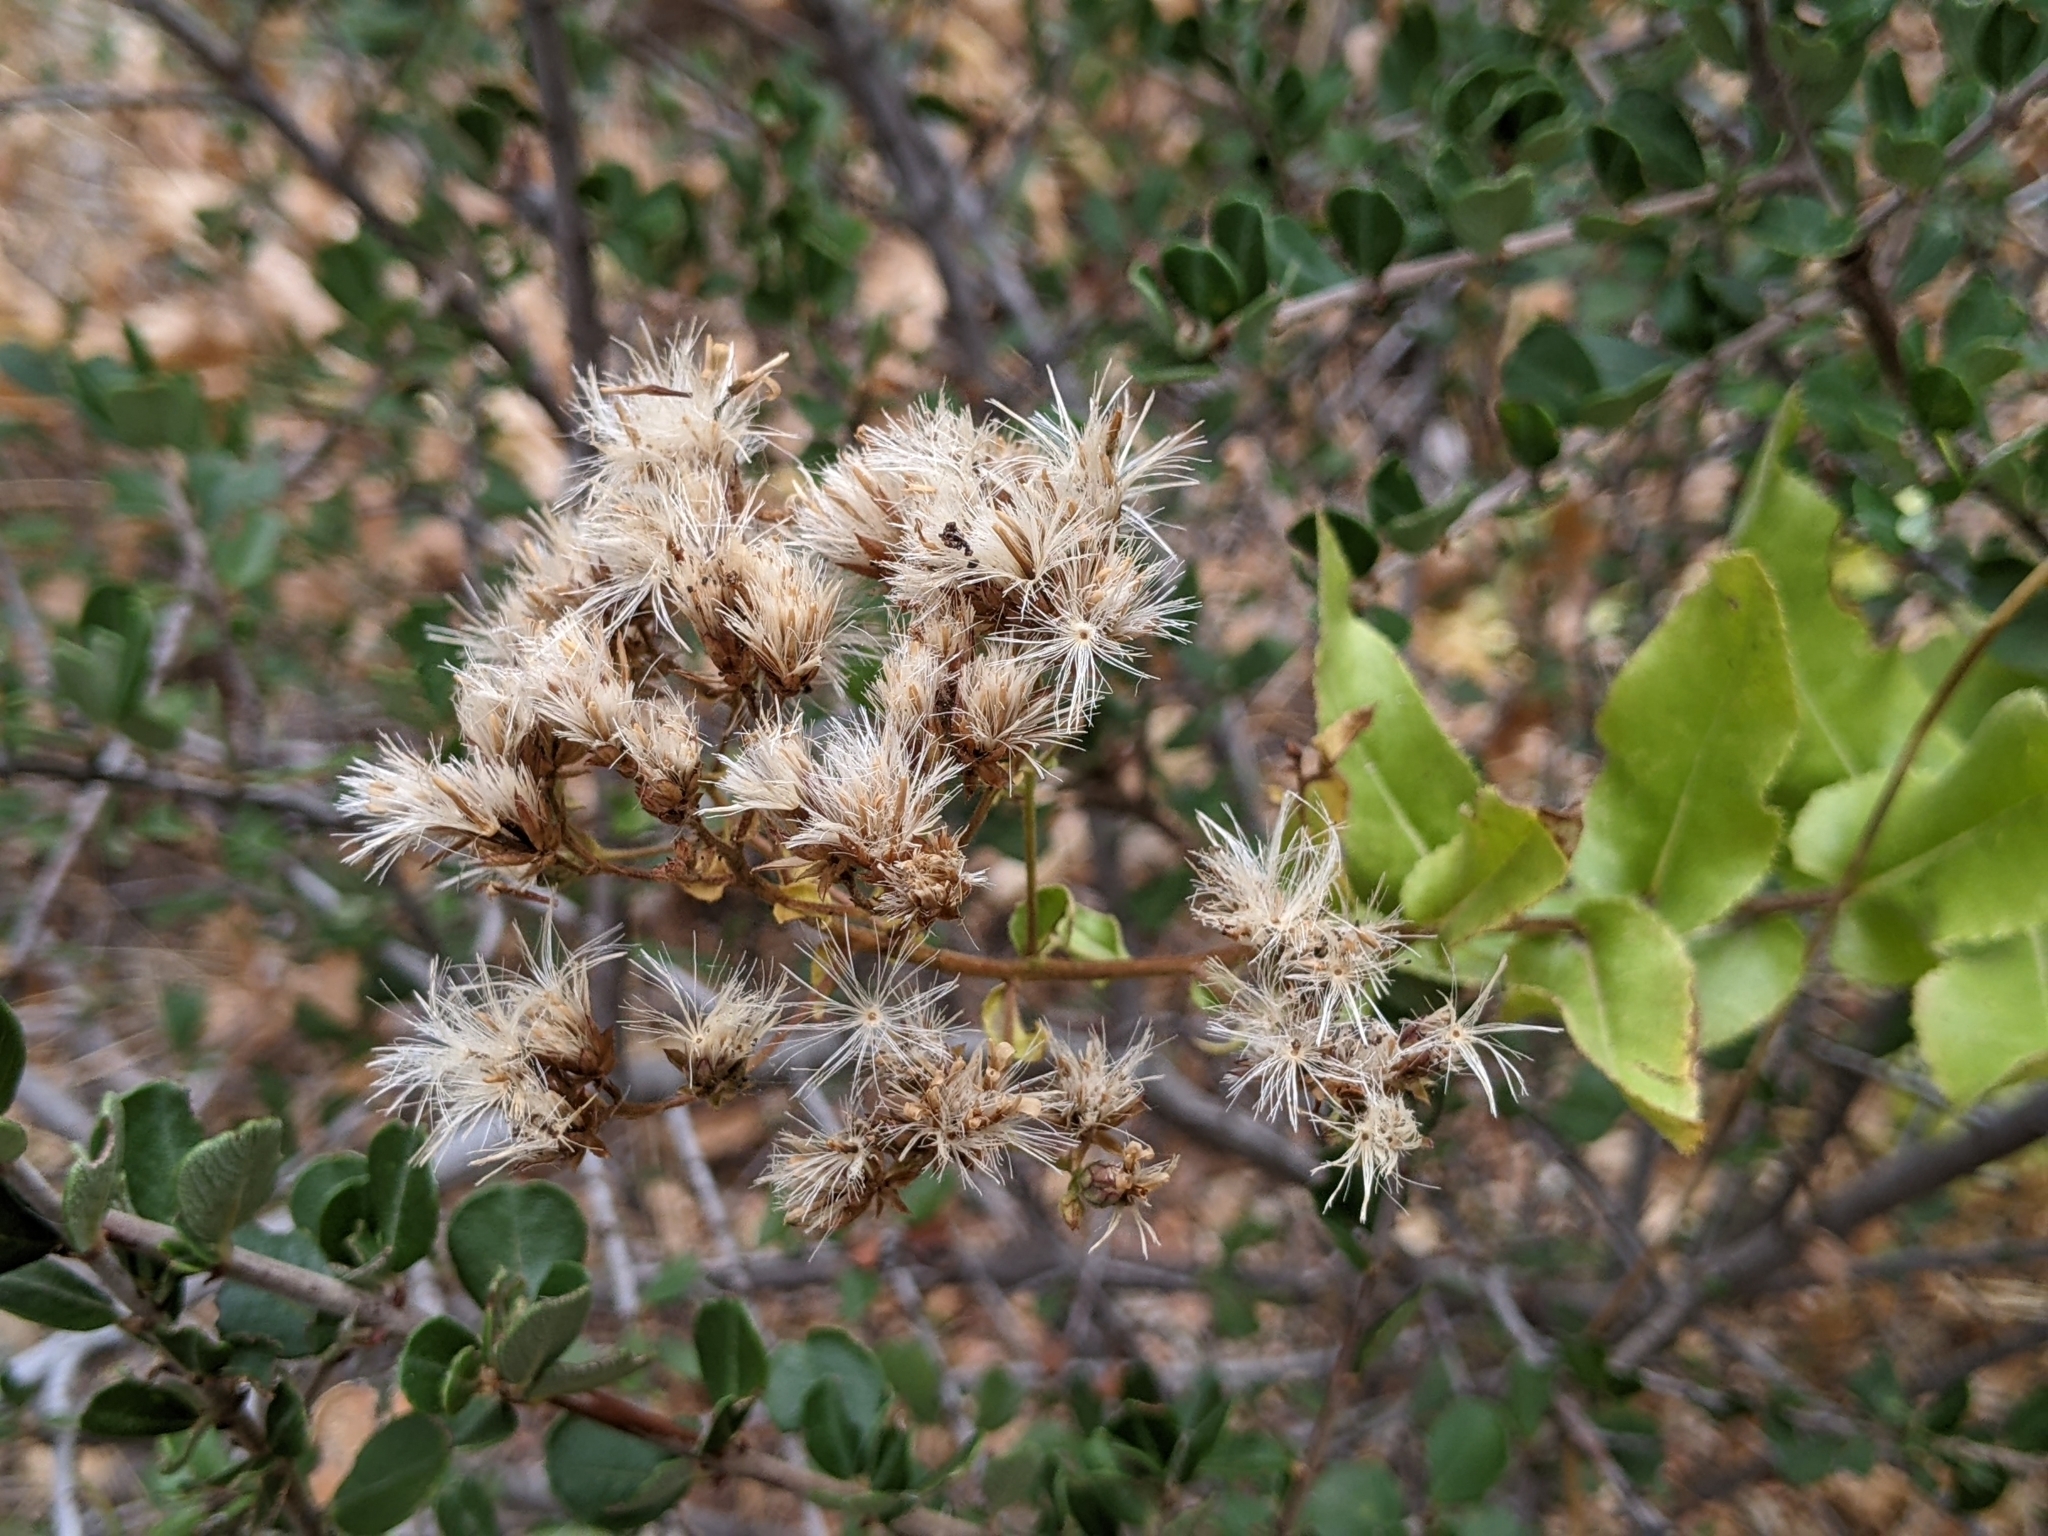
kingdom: Plantae
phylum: Tracheophyta
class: Magnoliopsida
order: Asterales
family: Asteraceae
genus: Acourtia
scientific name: Acourtia microcephala
